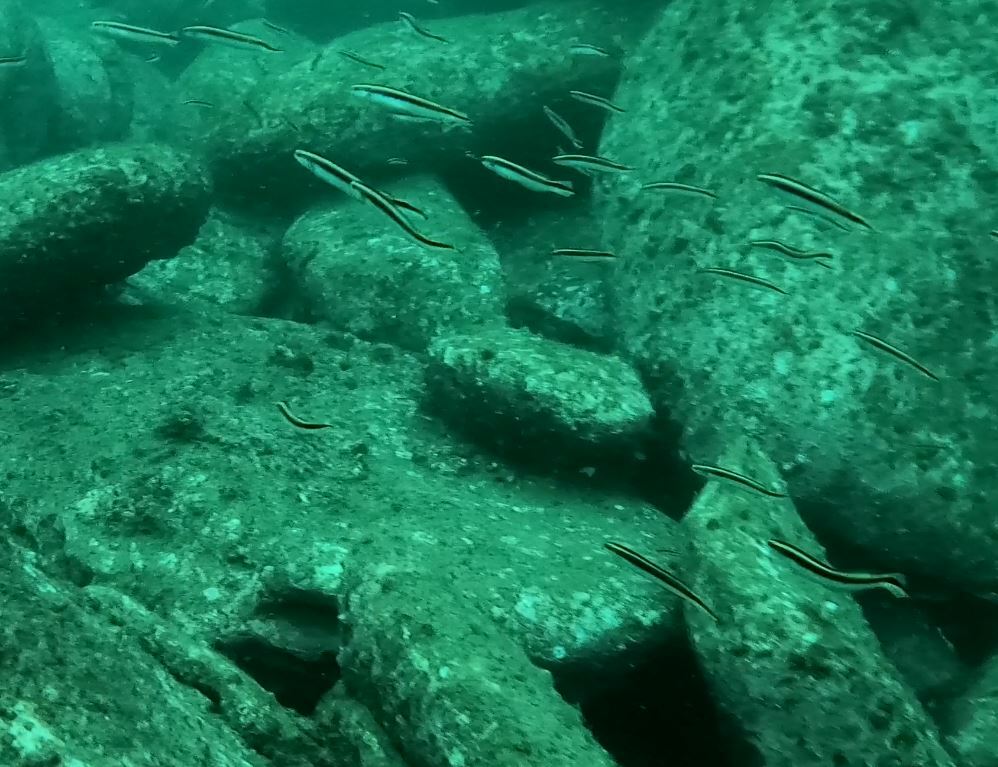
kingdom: Animalia
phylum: Chordata
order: Perciformes
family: Plesiopidae
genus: Trachinops
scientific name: Trachinops taeniatus
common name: Eastern hulafish
